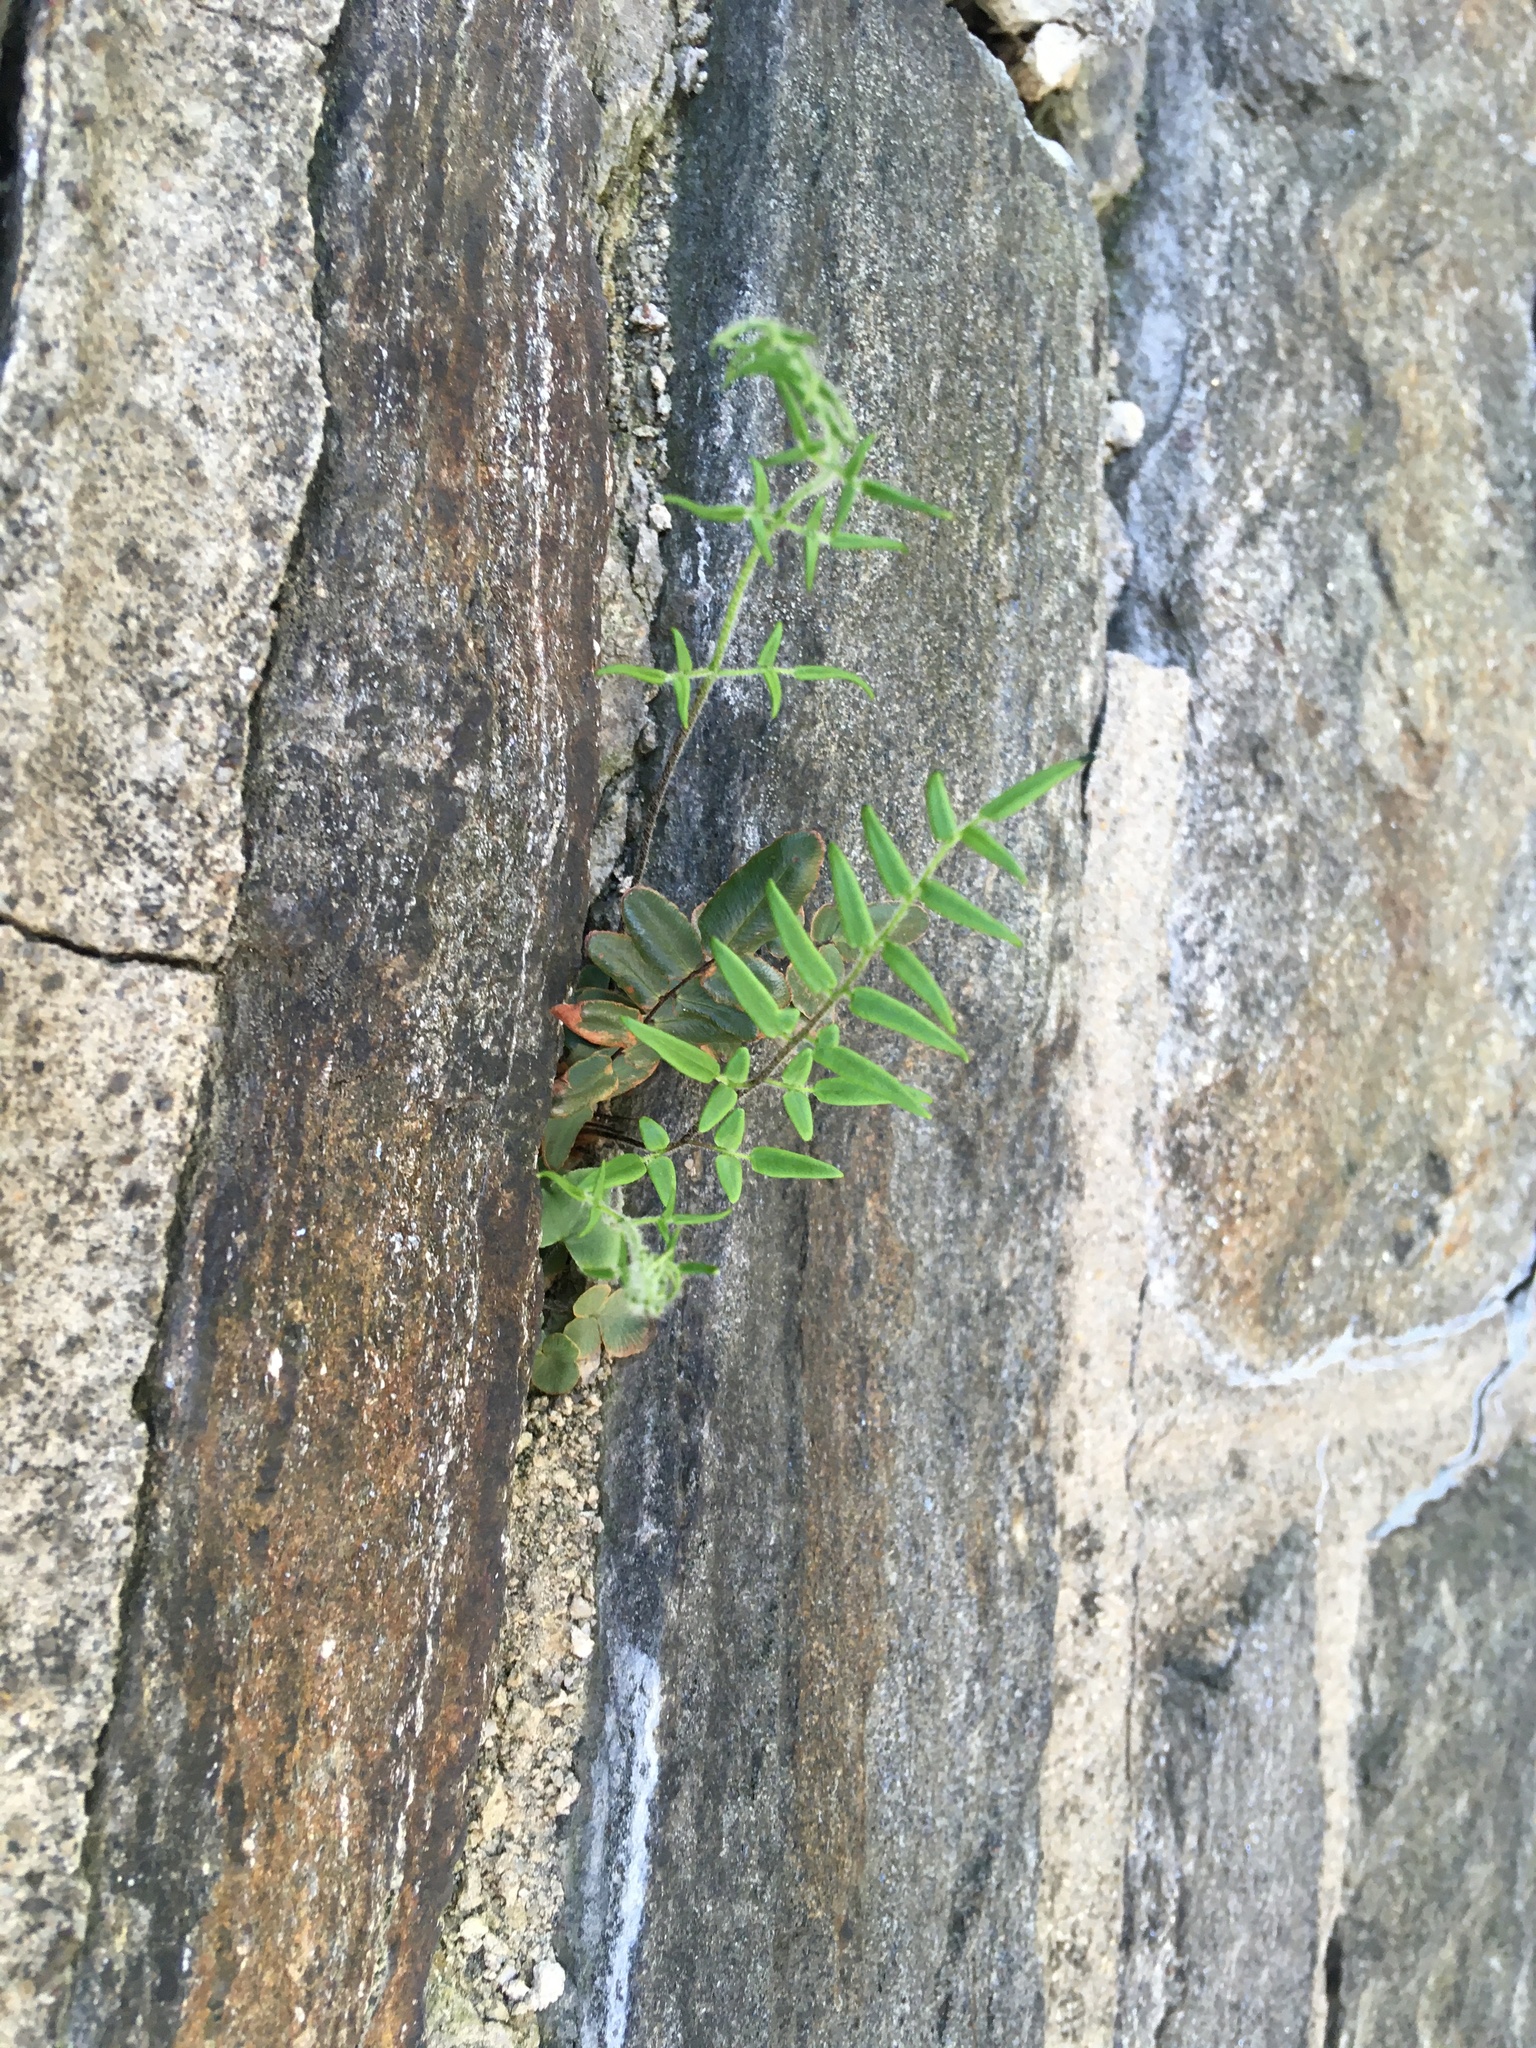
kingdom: Plantae
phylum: Tracheophyta
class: Polypodiopsida
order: Polypodiales
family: Pteridaceae
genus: Pellaea
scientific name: Pellaea atropurpurea
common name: Hairy cliffbrake
